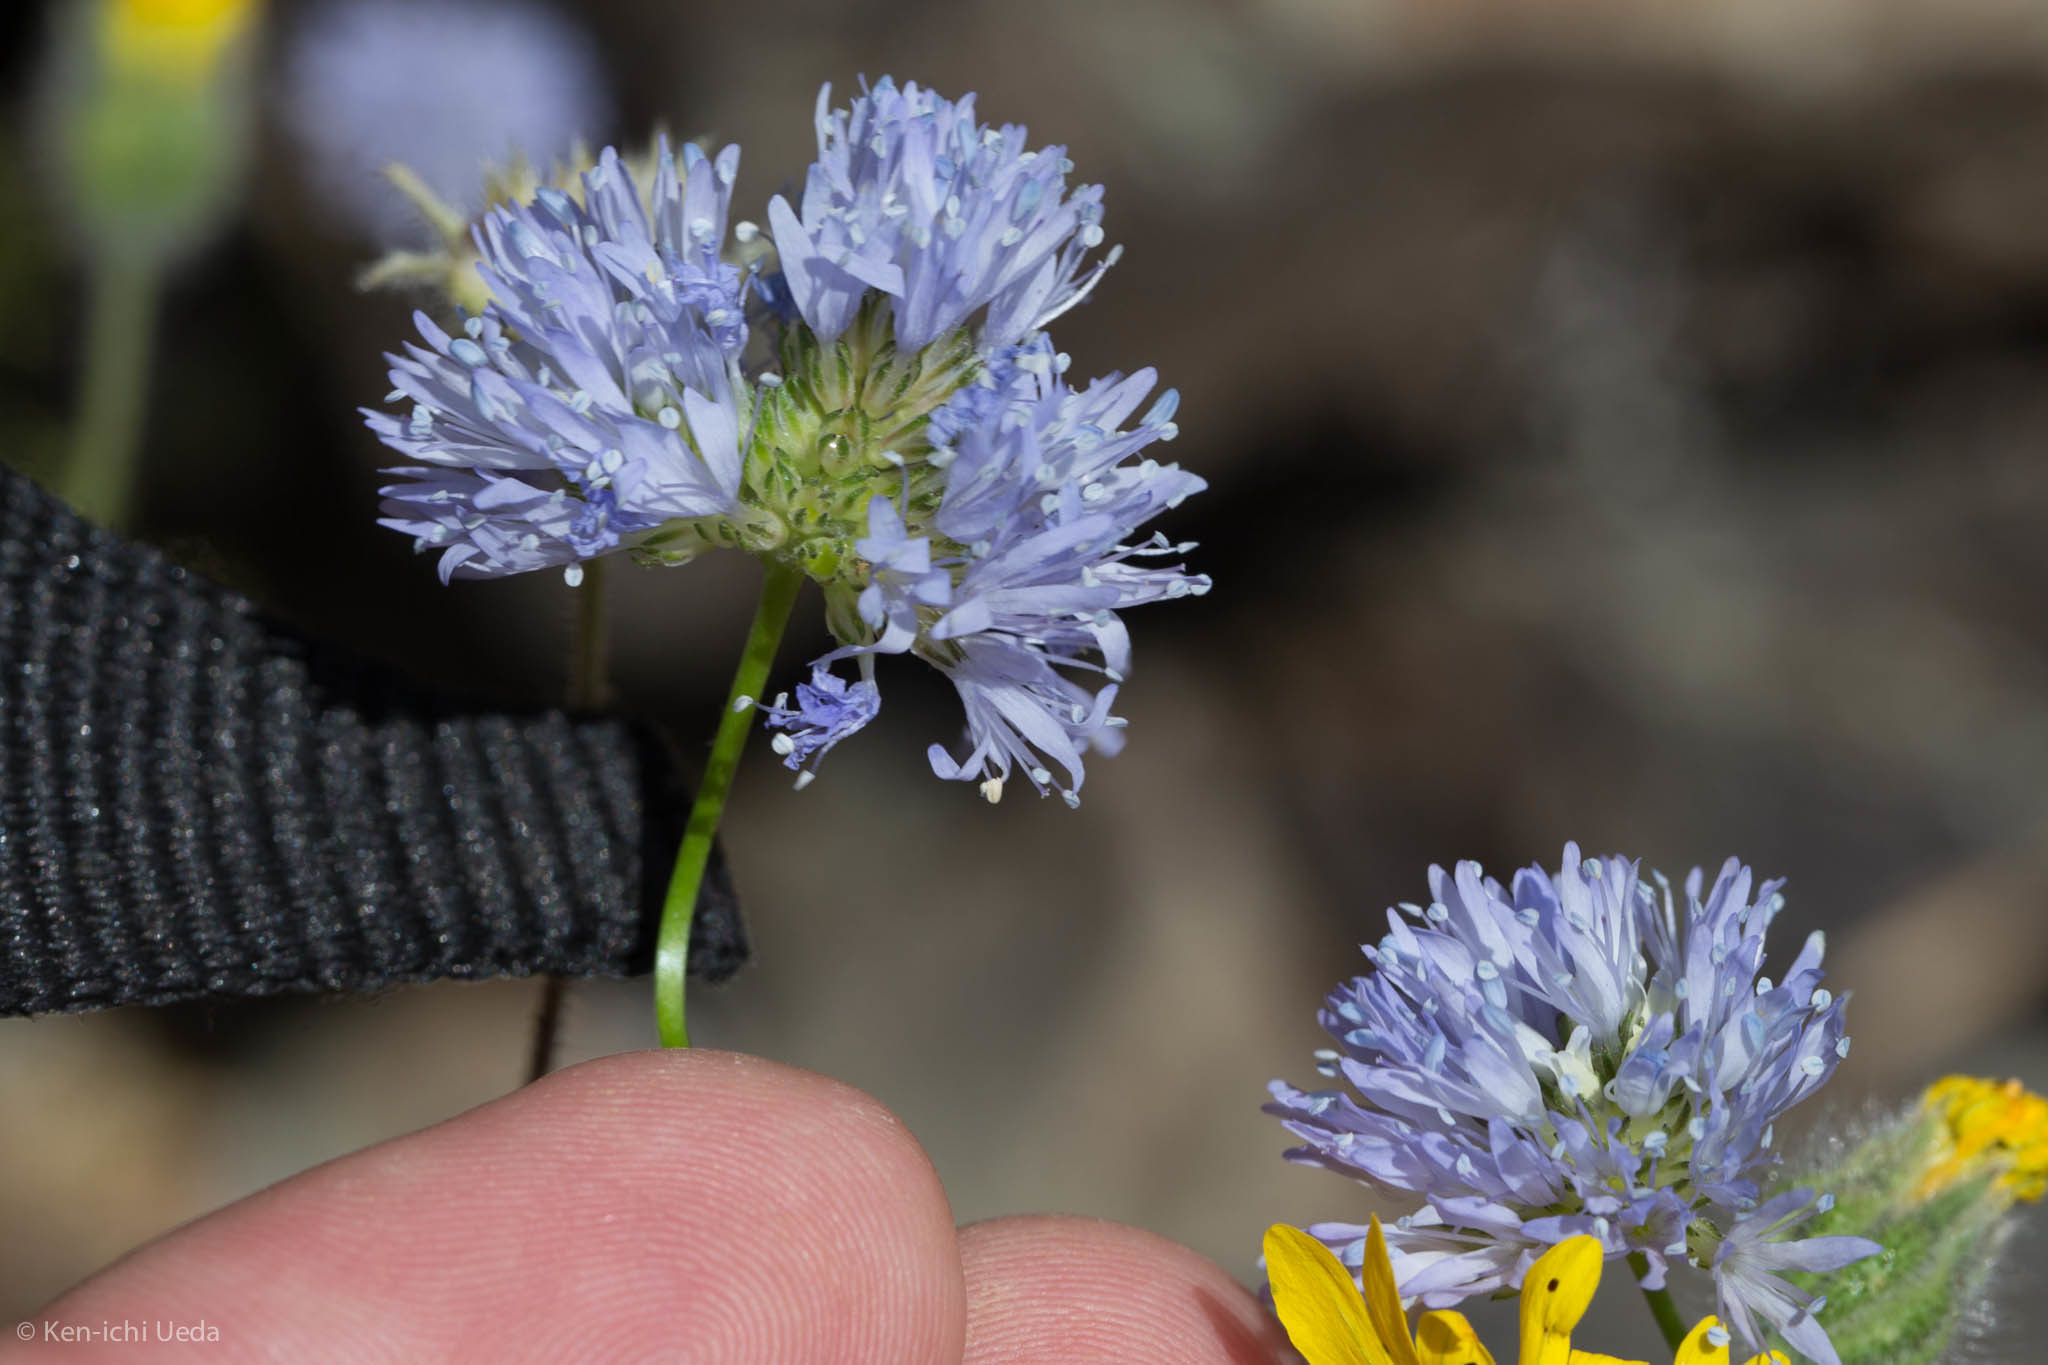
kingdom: Plantae
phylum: Tracheophyta
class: Magnoliopsida
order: Ericales
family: Polemoniaceae
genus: Gilia
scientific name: Gilia capitata
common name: Bluehead gilia
